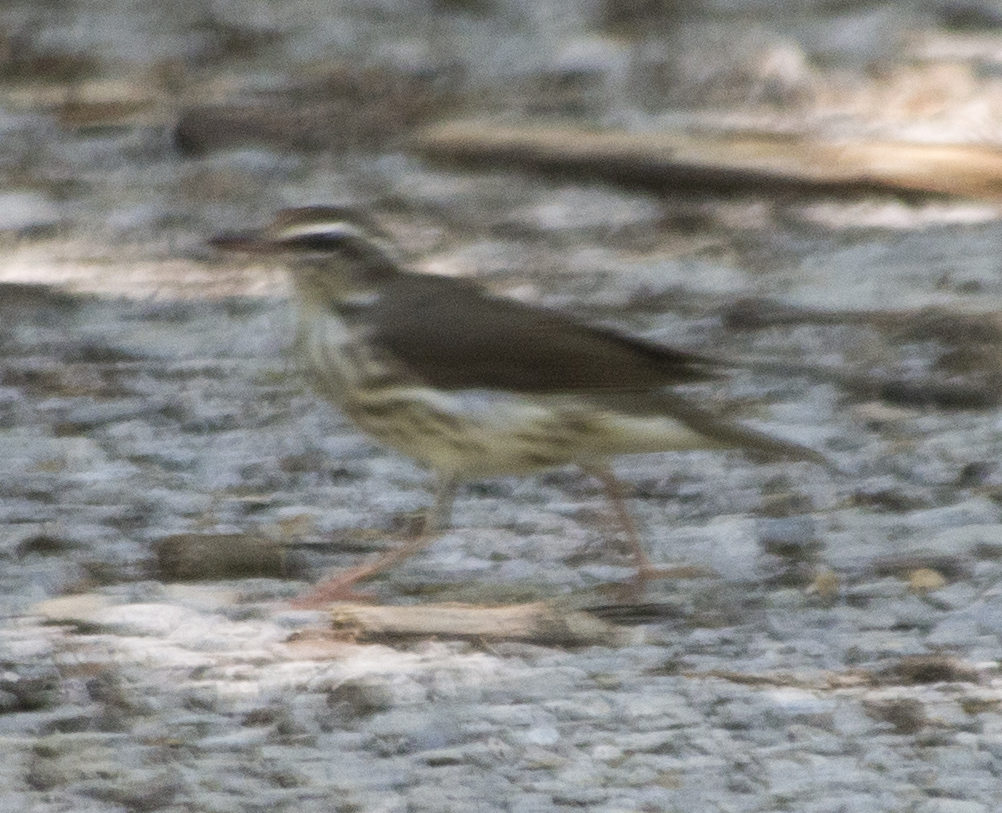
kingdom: Animalia
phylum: Chordata
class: Aves
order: Passeriformes
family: Parulidae
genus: Parkesia
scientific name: Parkesia motacilla
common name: Louisiana waterthrush
